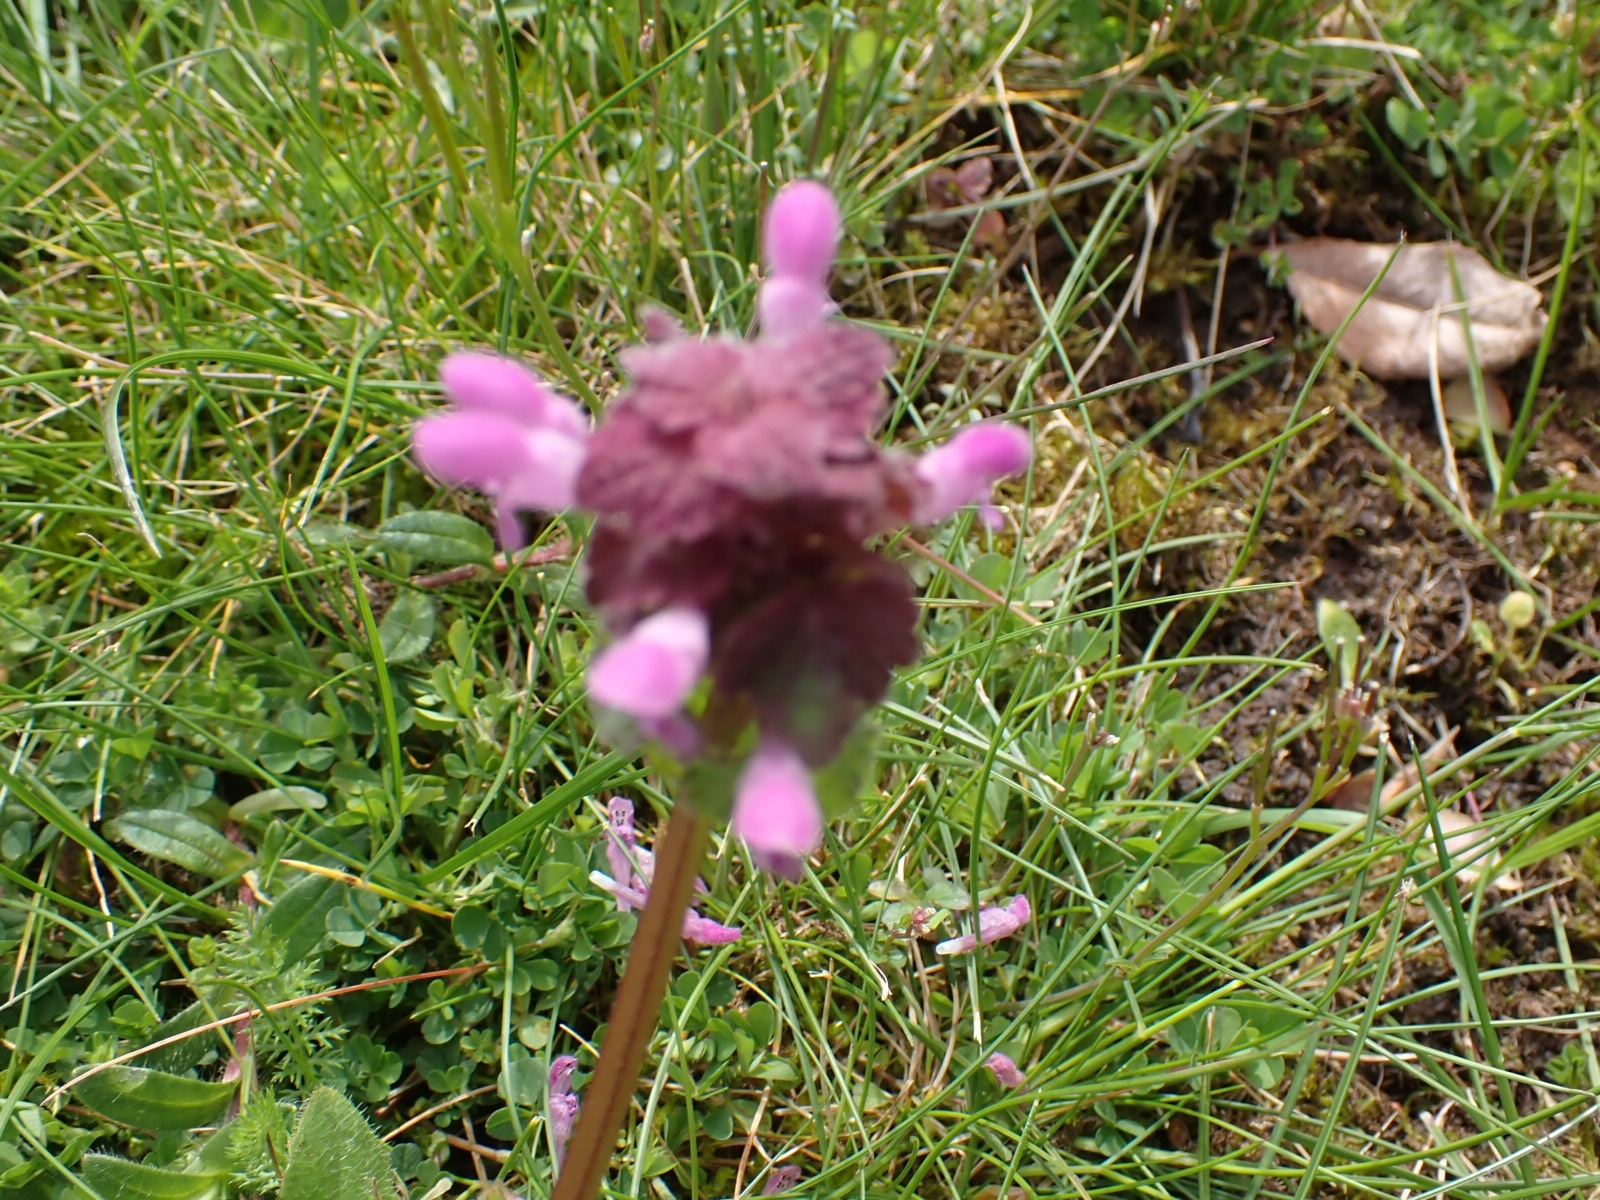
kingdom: Plantae
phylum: Tracheophyta
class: Magnoliopsida
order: Lamiales
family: Lamiaceae
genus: Lamium
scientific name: Lamium purpureum
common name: Red dead-nettle
